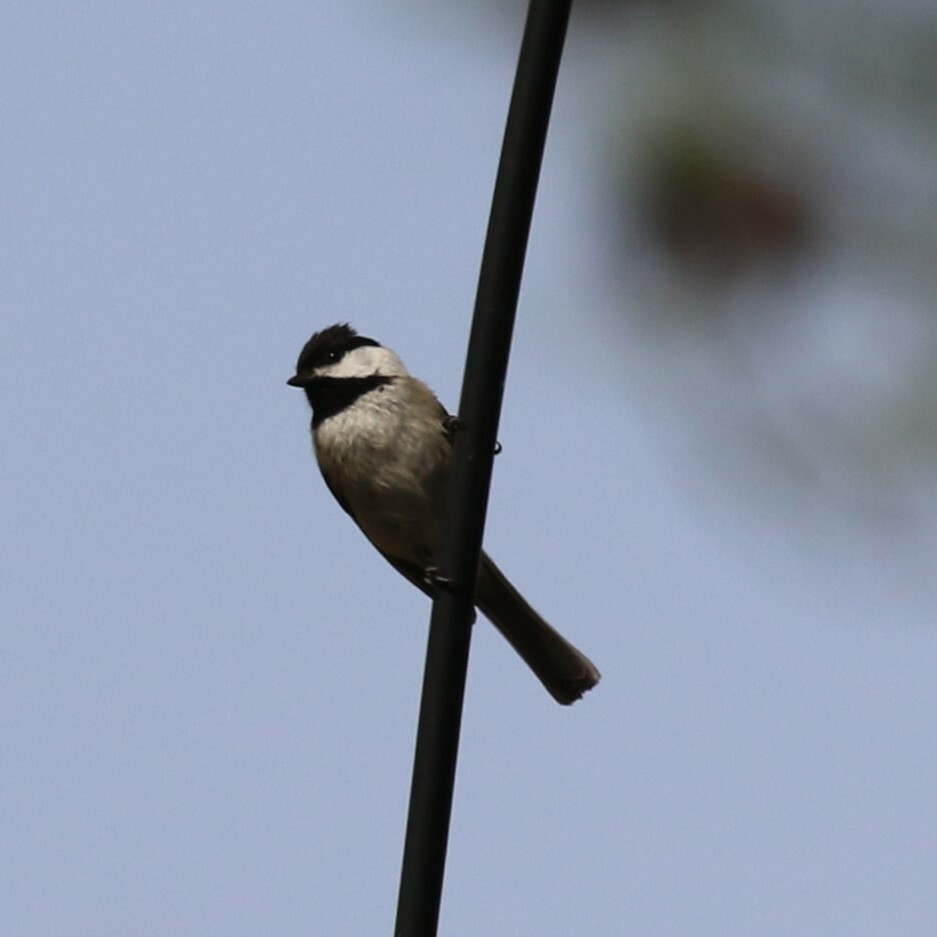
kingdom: Animalia
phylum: Chordata
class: Aves
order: Passeriformes
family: Paridae
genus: Poecile
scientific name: Poecile carolinensis
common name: Carolina chickadee
